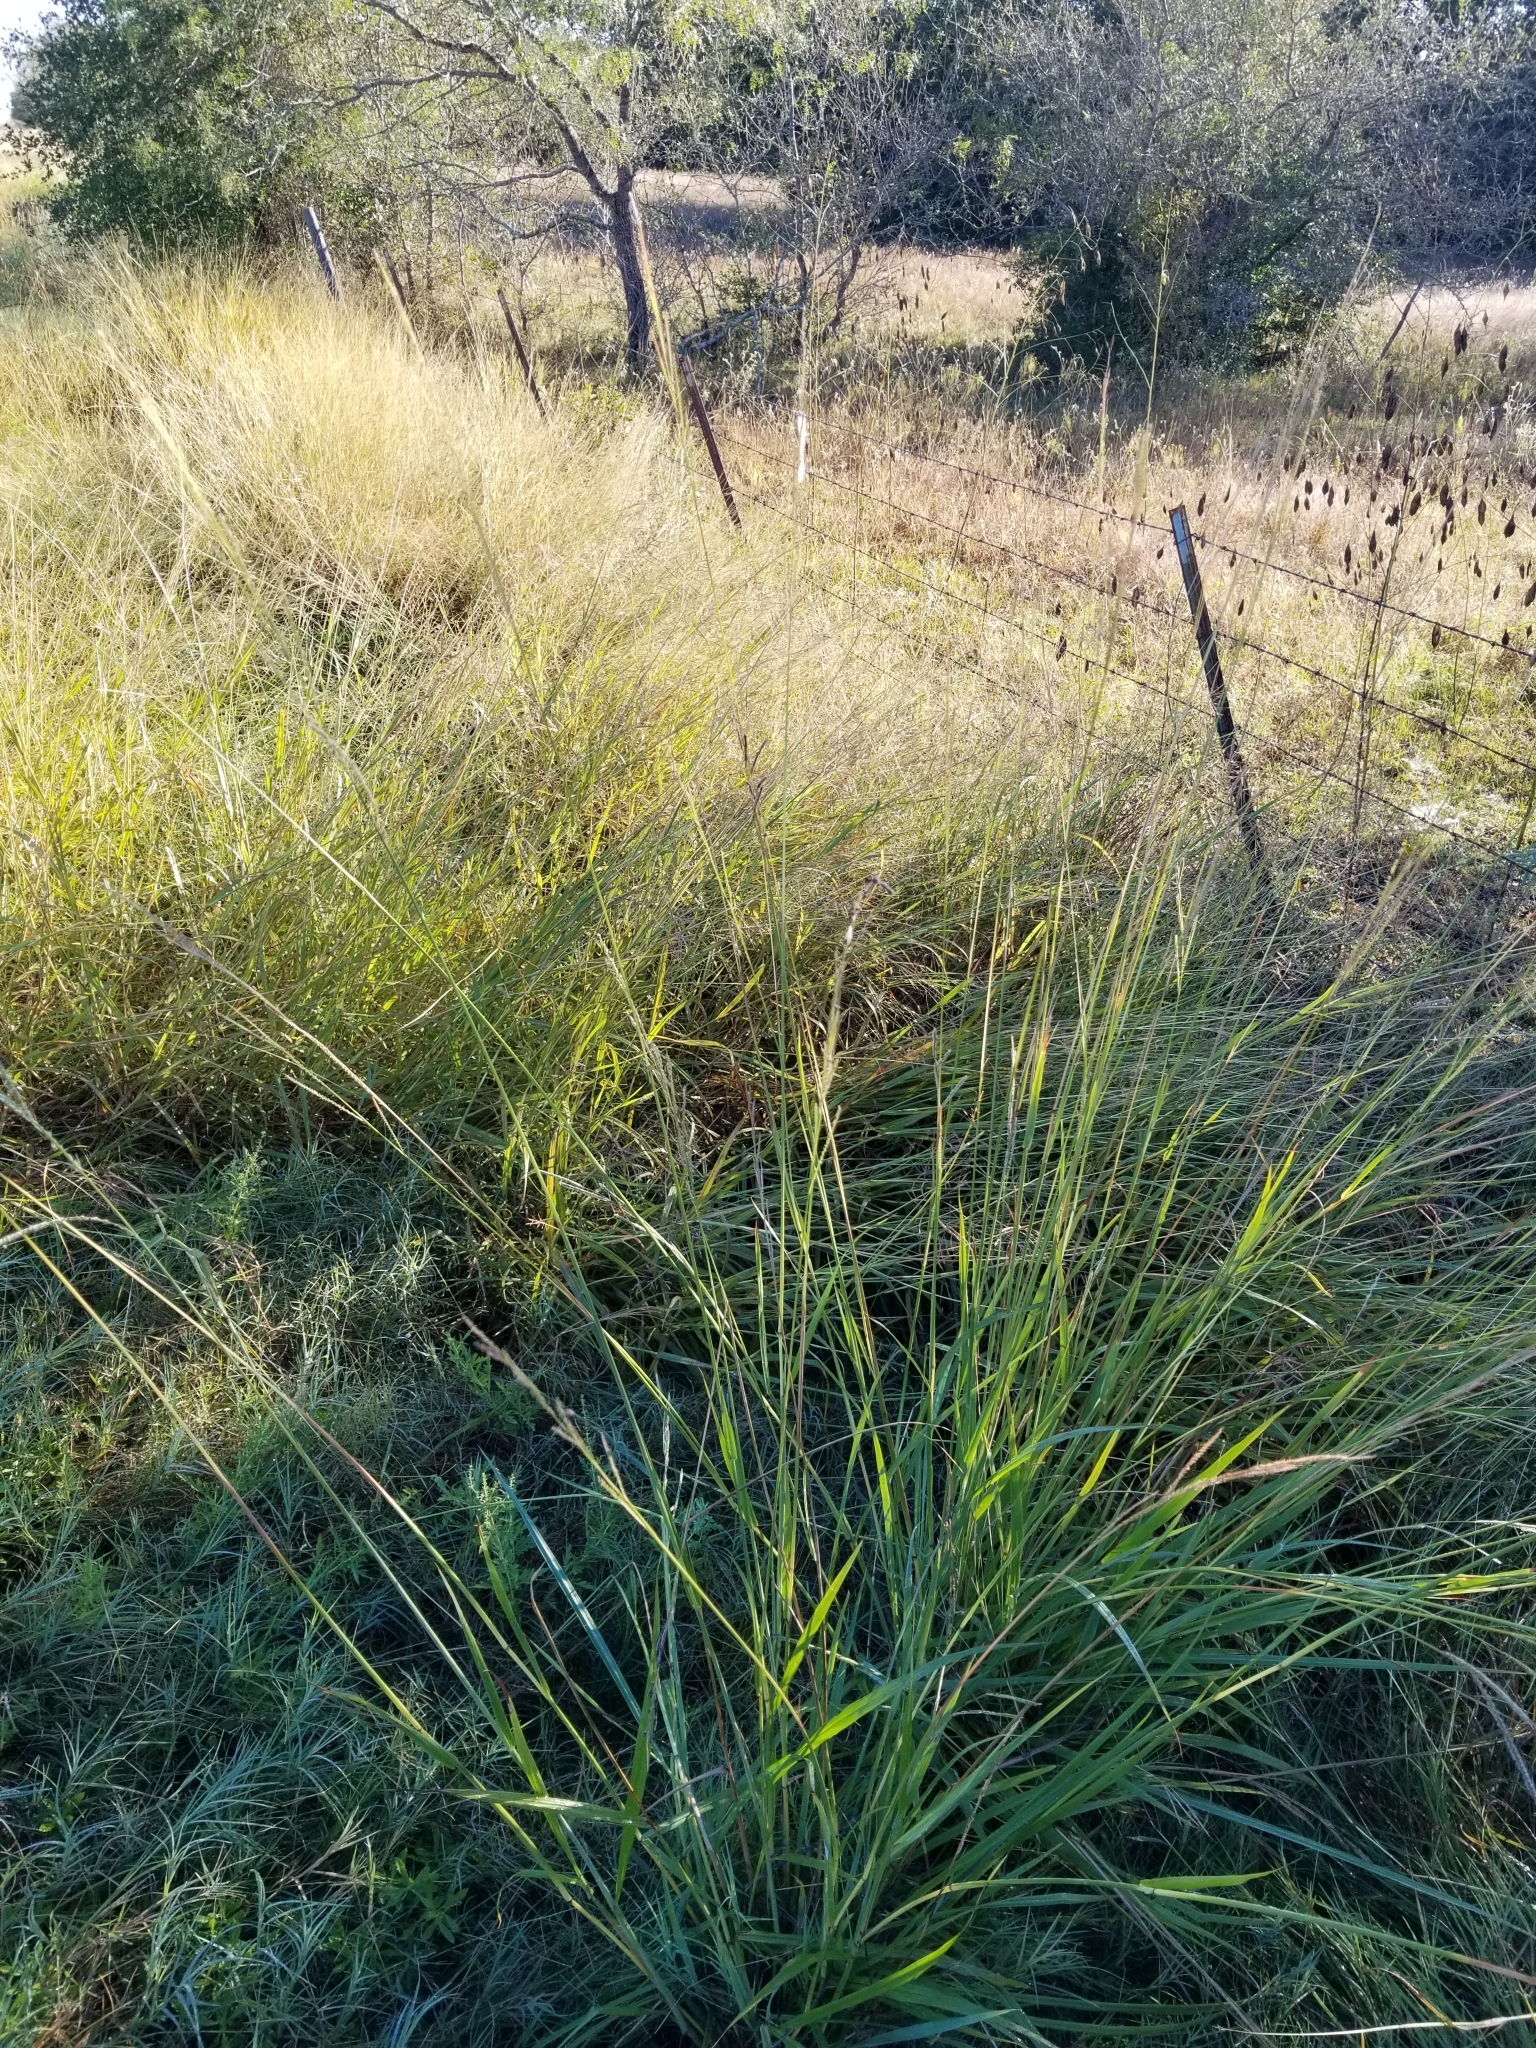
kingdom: Plantae
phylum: Tracheophyta
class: Liliopsida
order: Poales
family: Poaceae
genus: Paspalum
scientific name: Paspalum urvillei
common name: Vasey's grass
